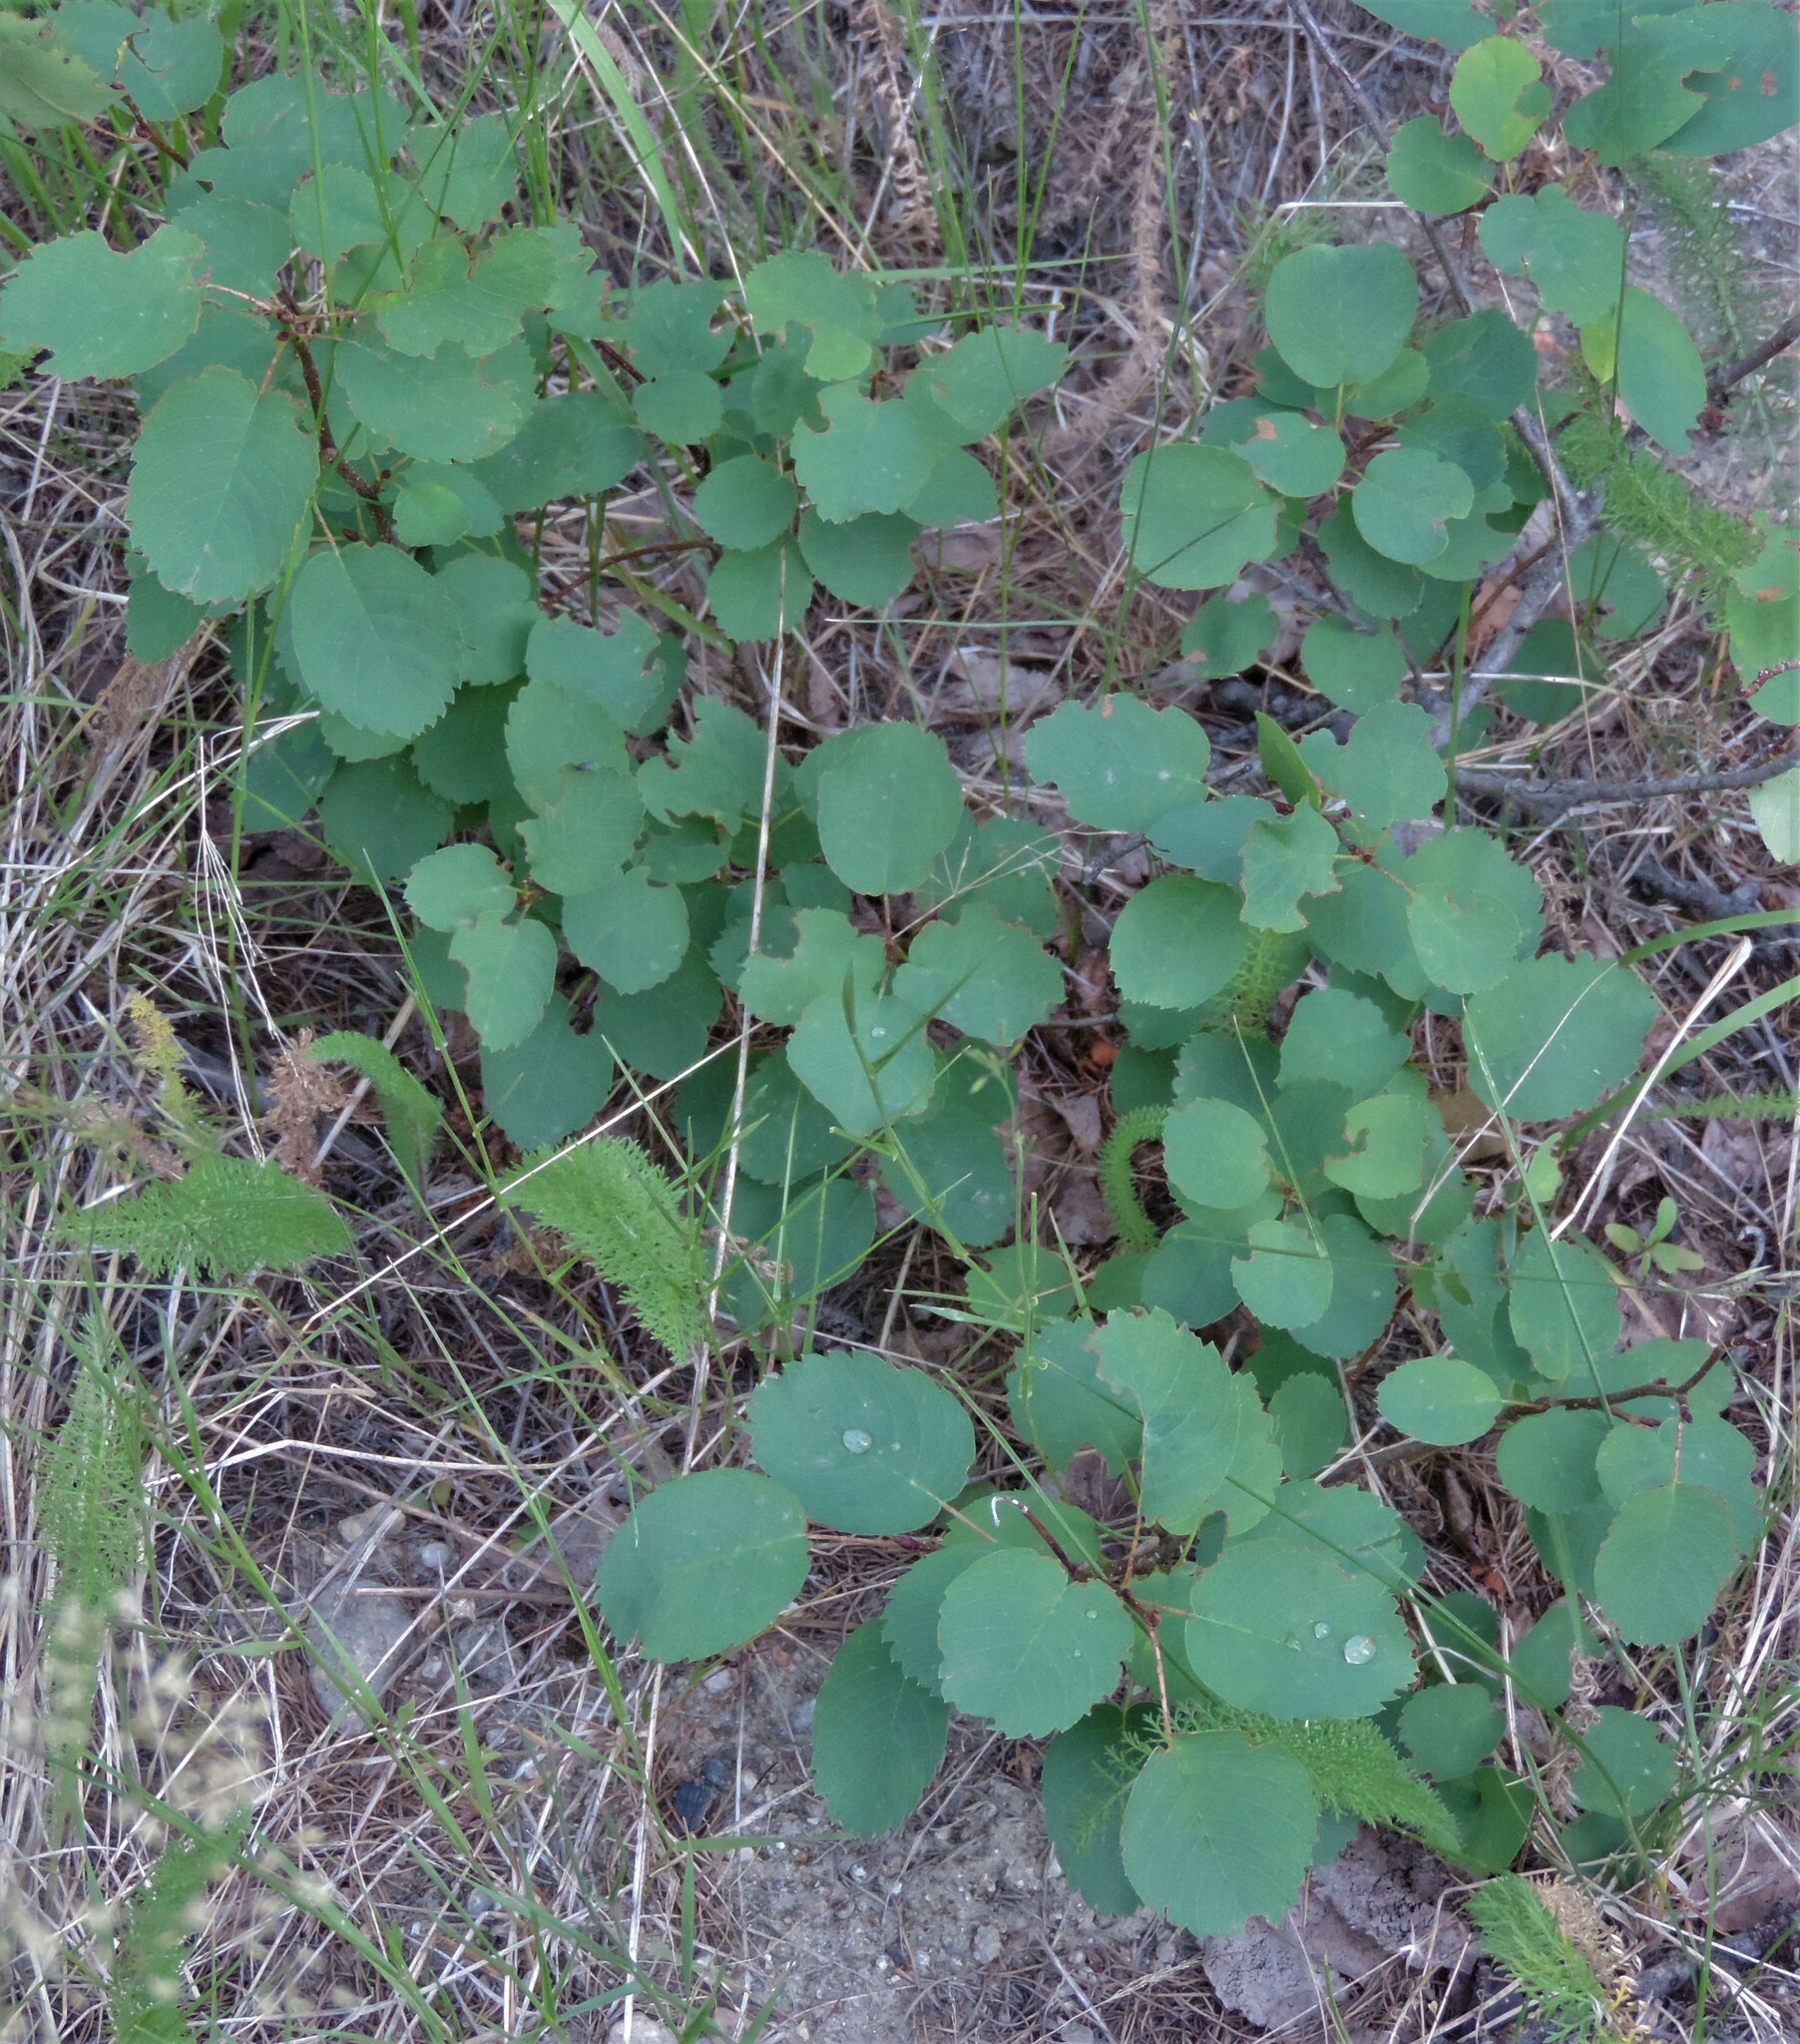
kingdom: Plantae
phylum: Tracheophyta
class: Magnoliopsida
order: Rosales
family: Rosaceae
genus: Amelanchier
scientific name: Amelanchier alnifolia
